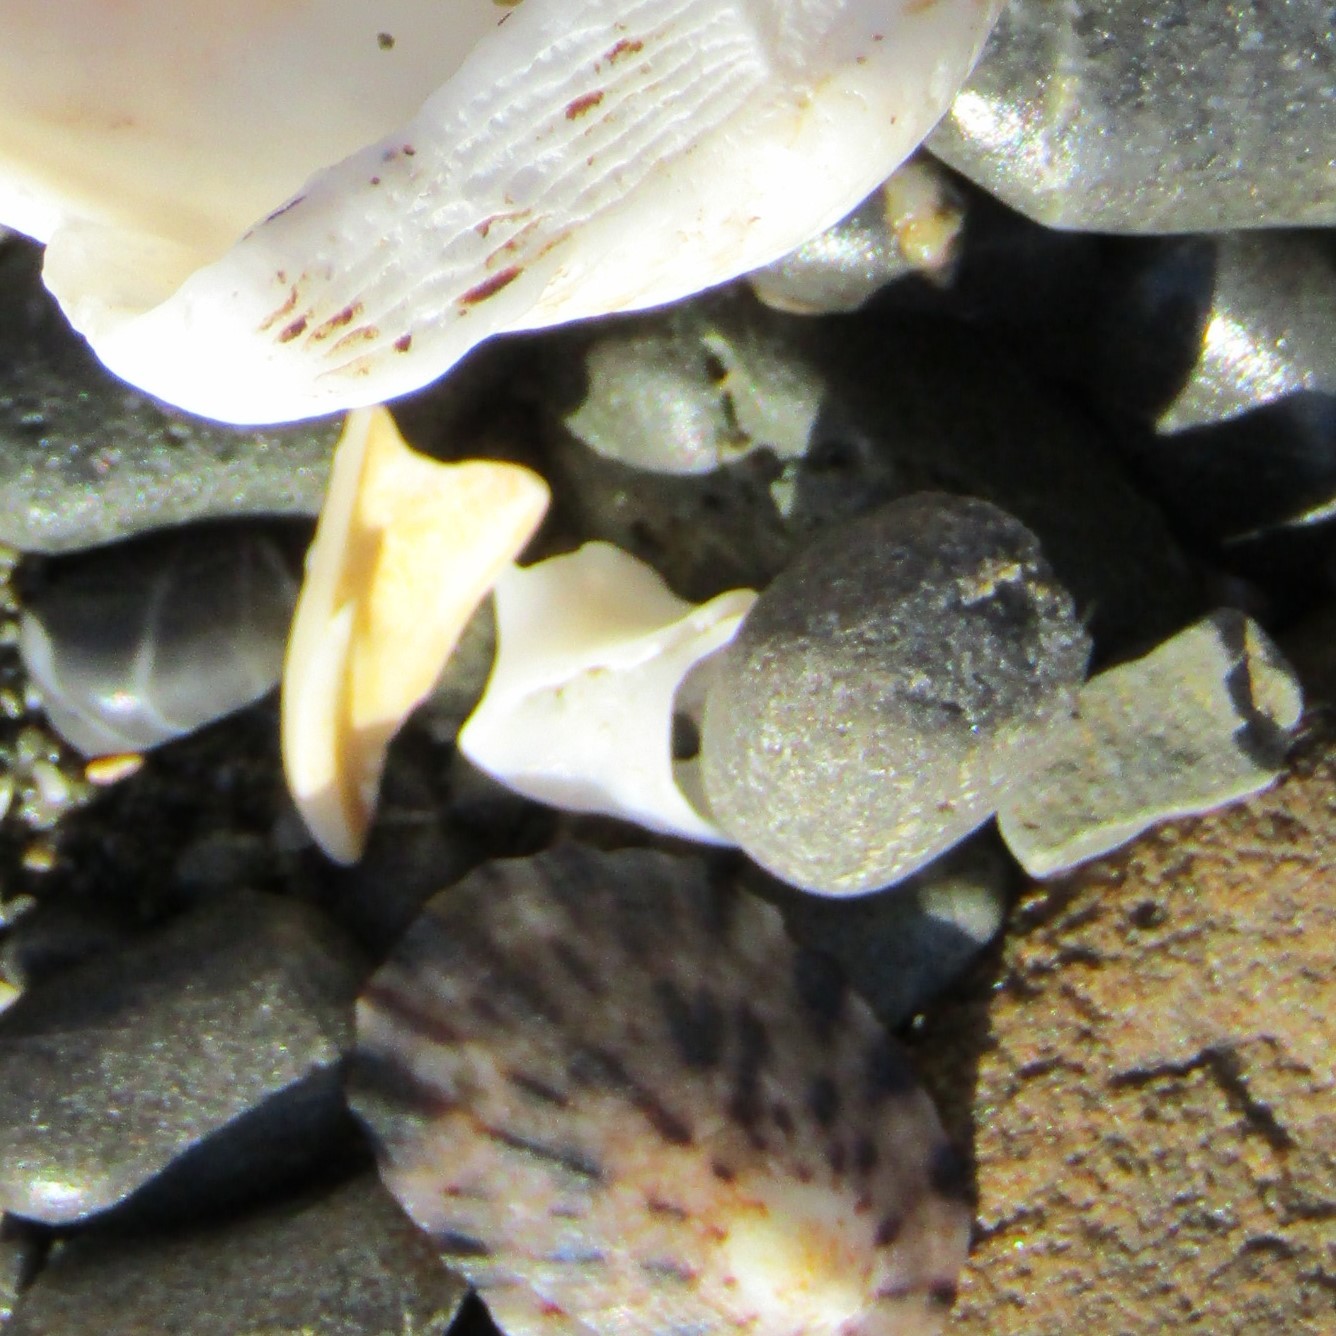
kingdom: Animalia
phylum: Mollusca
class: Gastropoda
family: Nacellidae
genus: Cellana
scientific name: Cellana radians
